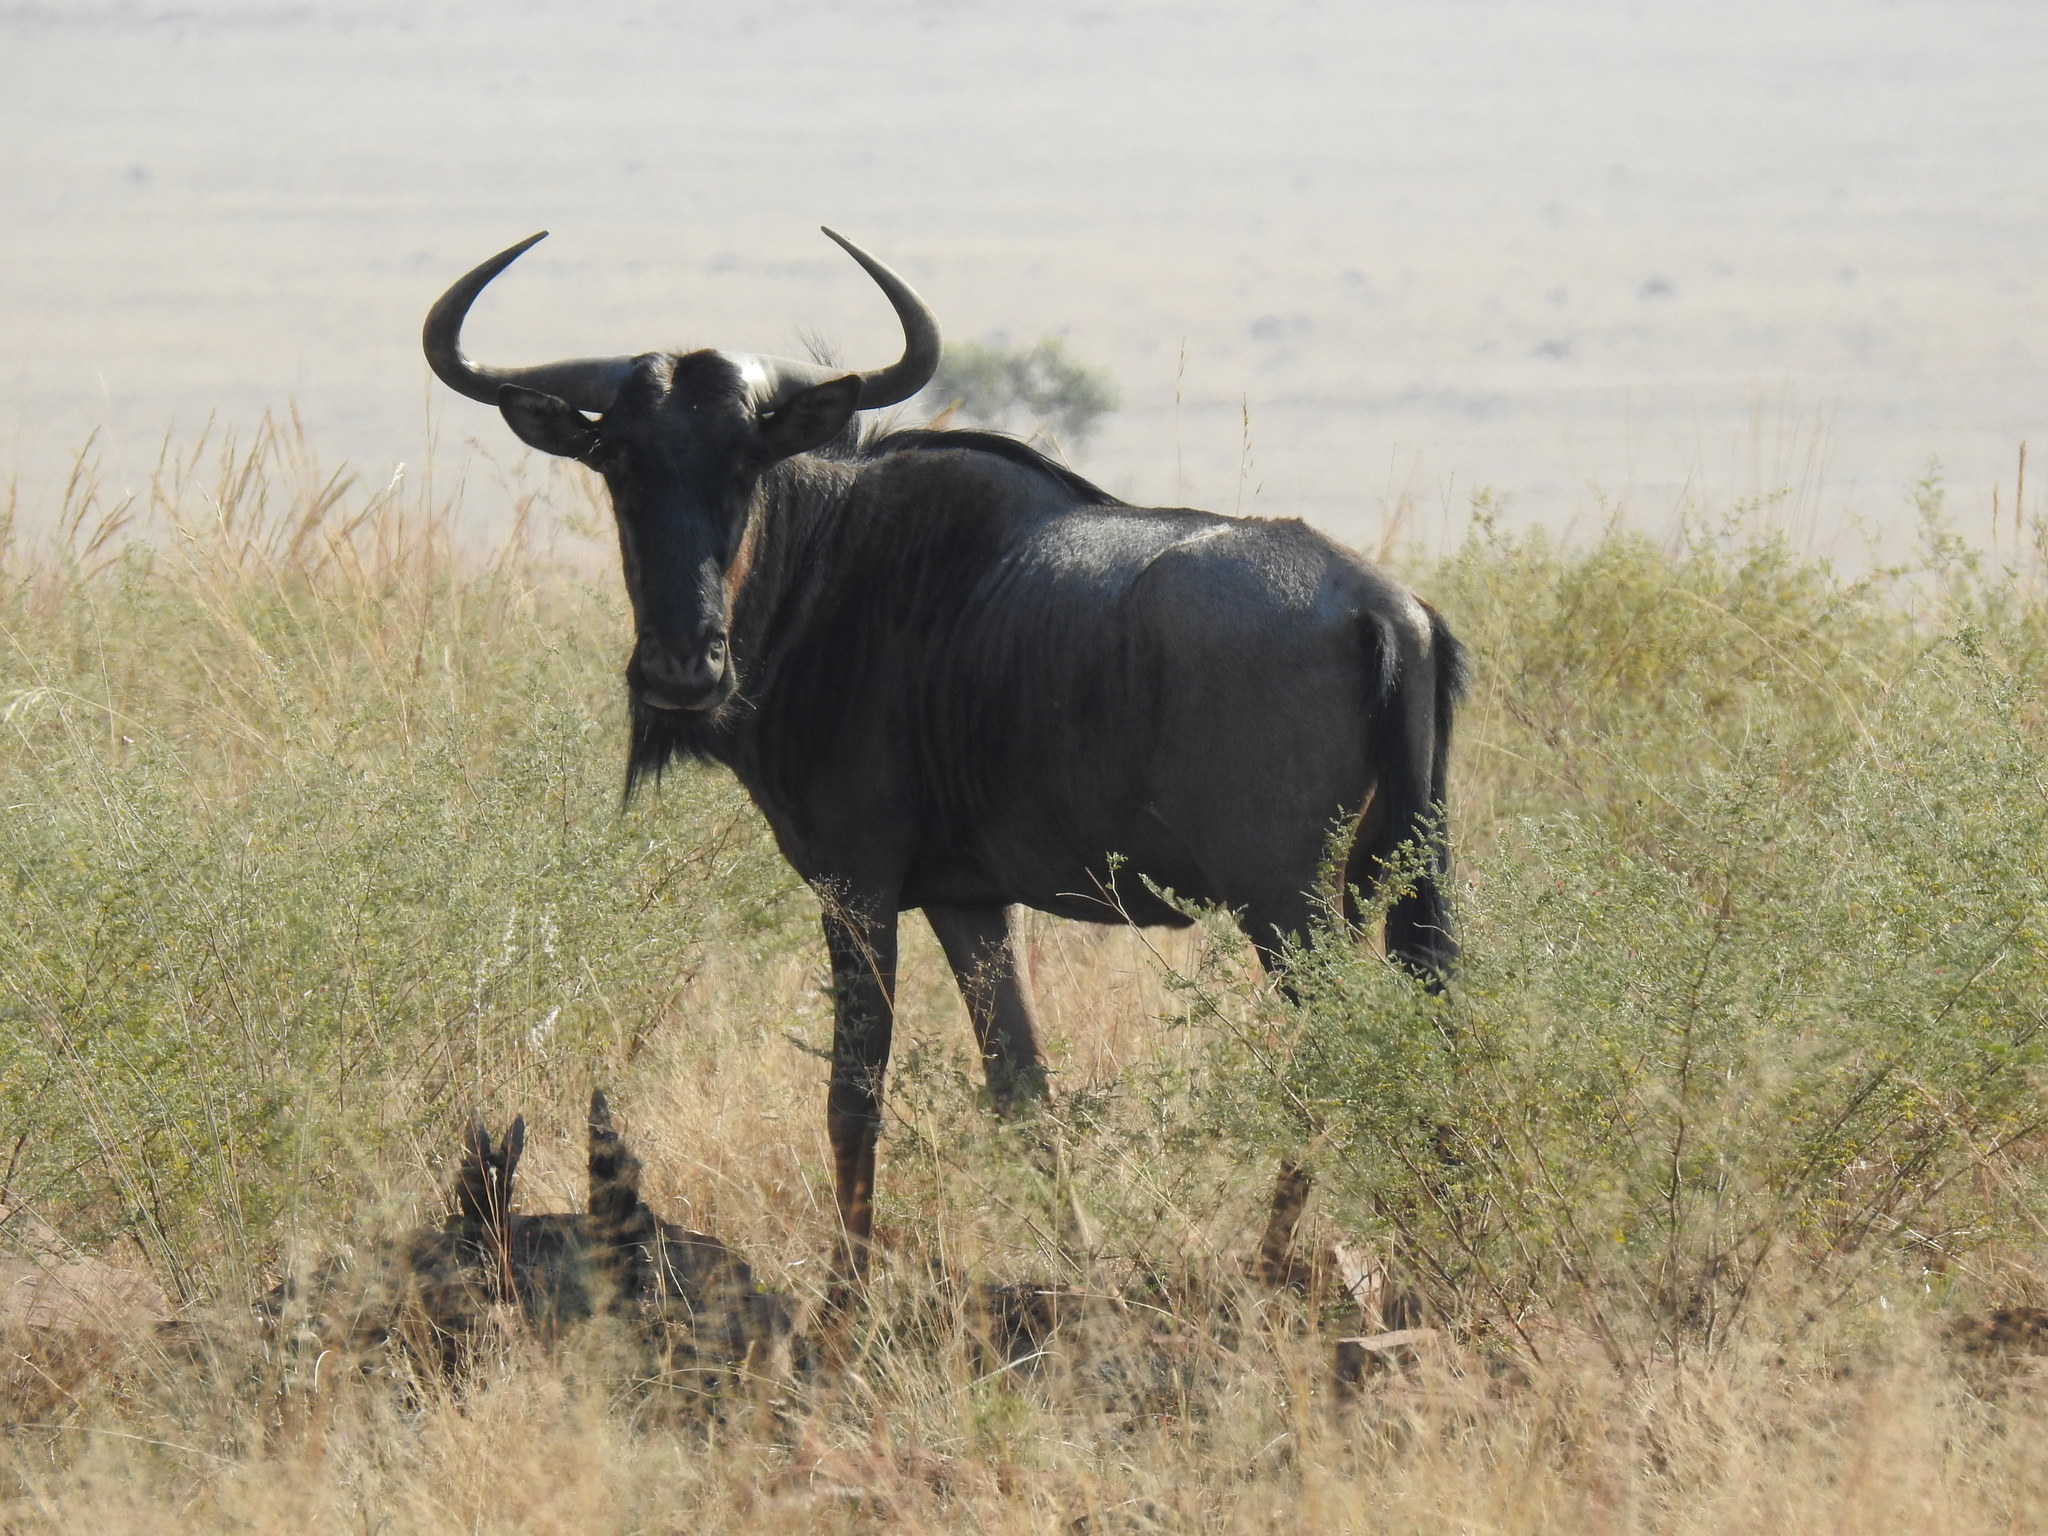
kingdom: Animalia
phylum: Chordata
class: Mammalia
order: Artiodactyla
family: Bovidae
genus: Connochaetes
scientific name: Connochaetes taurinus
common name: Blue wildebeest
